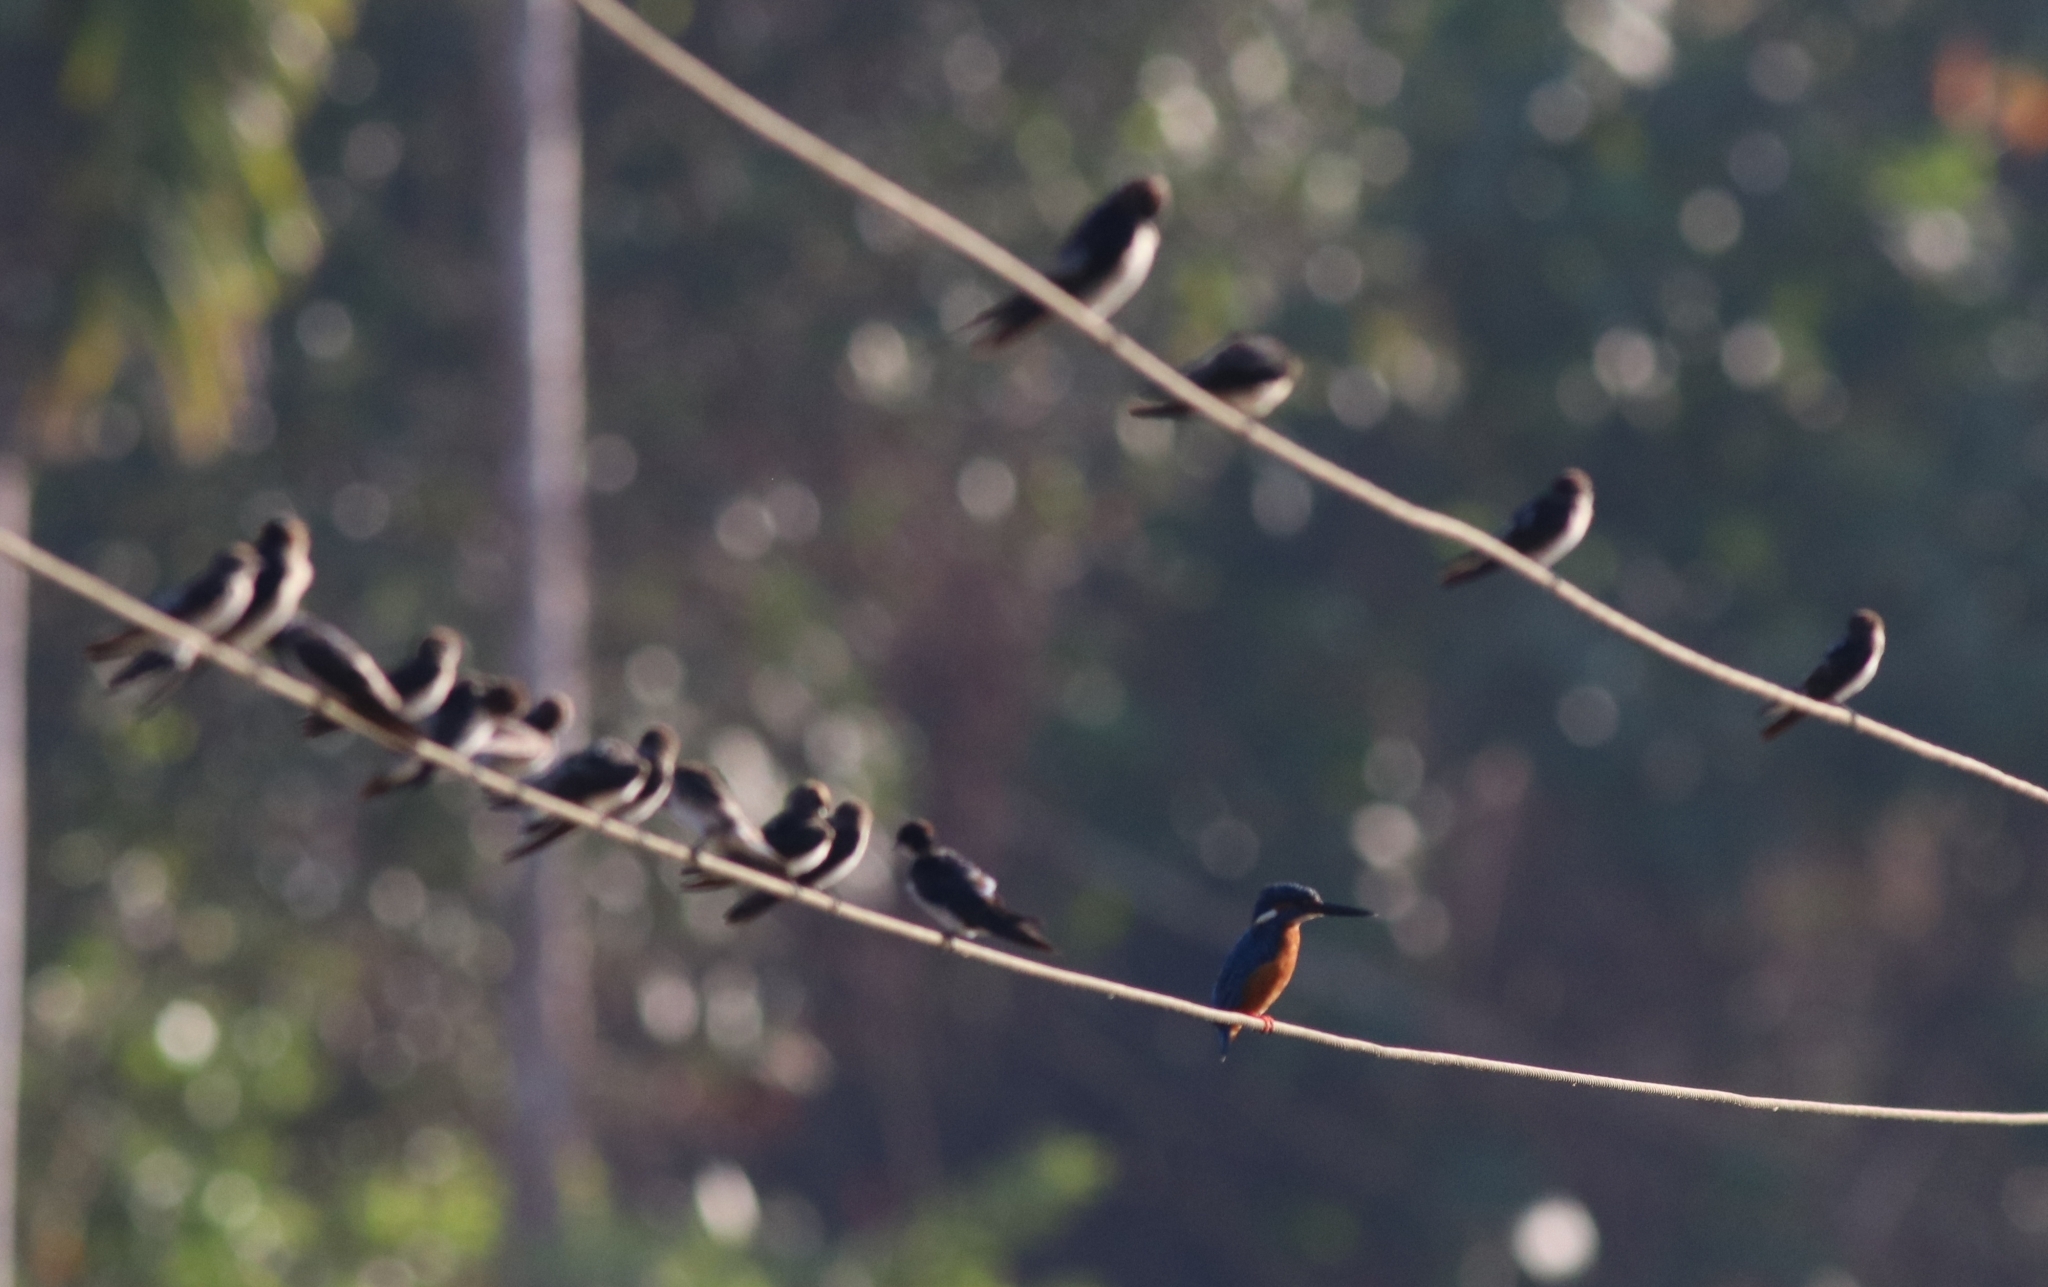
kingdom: Animalia
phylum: Chordata
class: Aves
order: Coraciiformes
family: Alcedinidae
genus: Alcedo
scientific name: Alcedo atthis
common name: Common kingfisher
